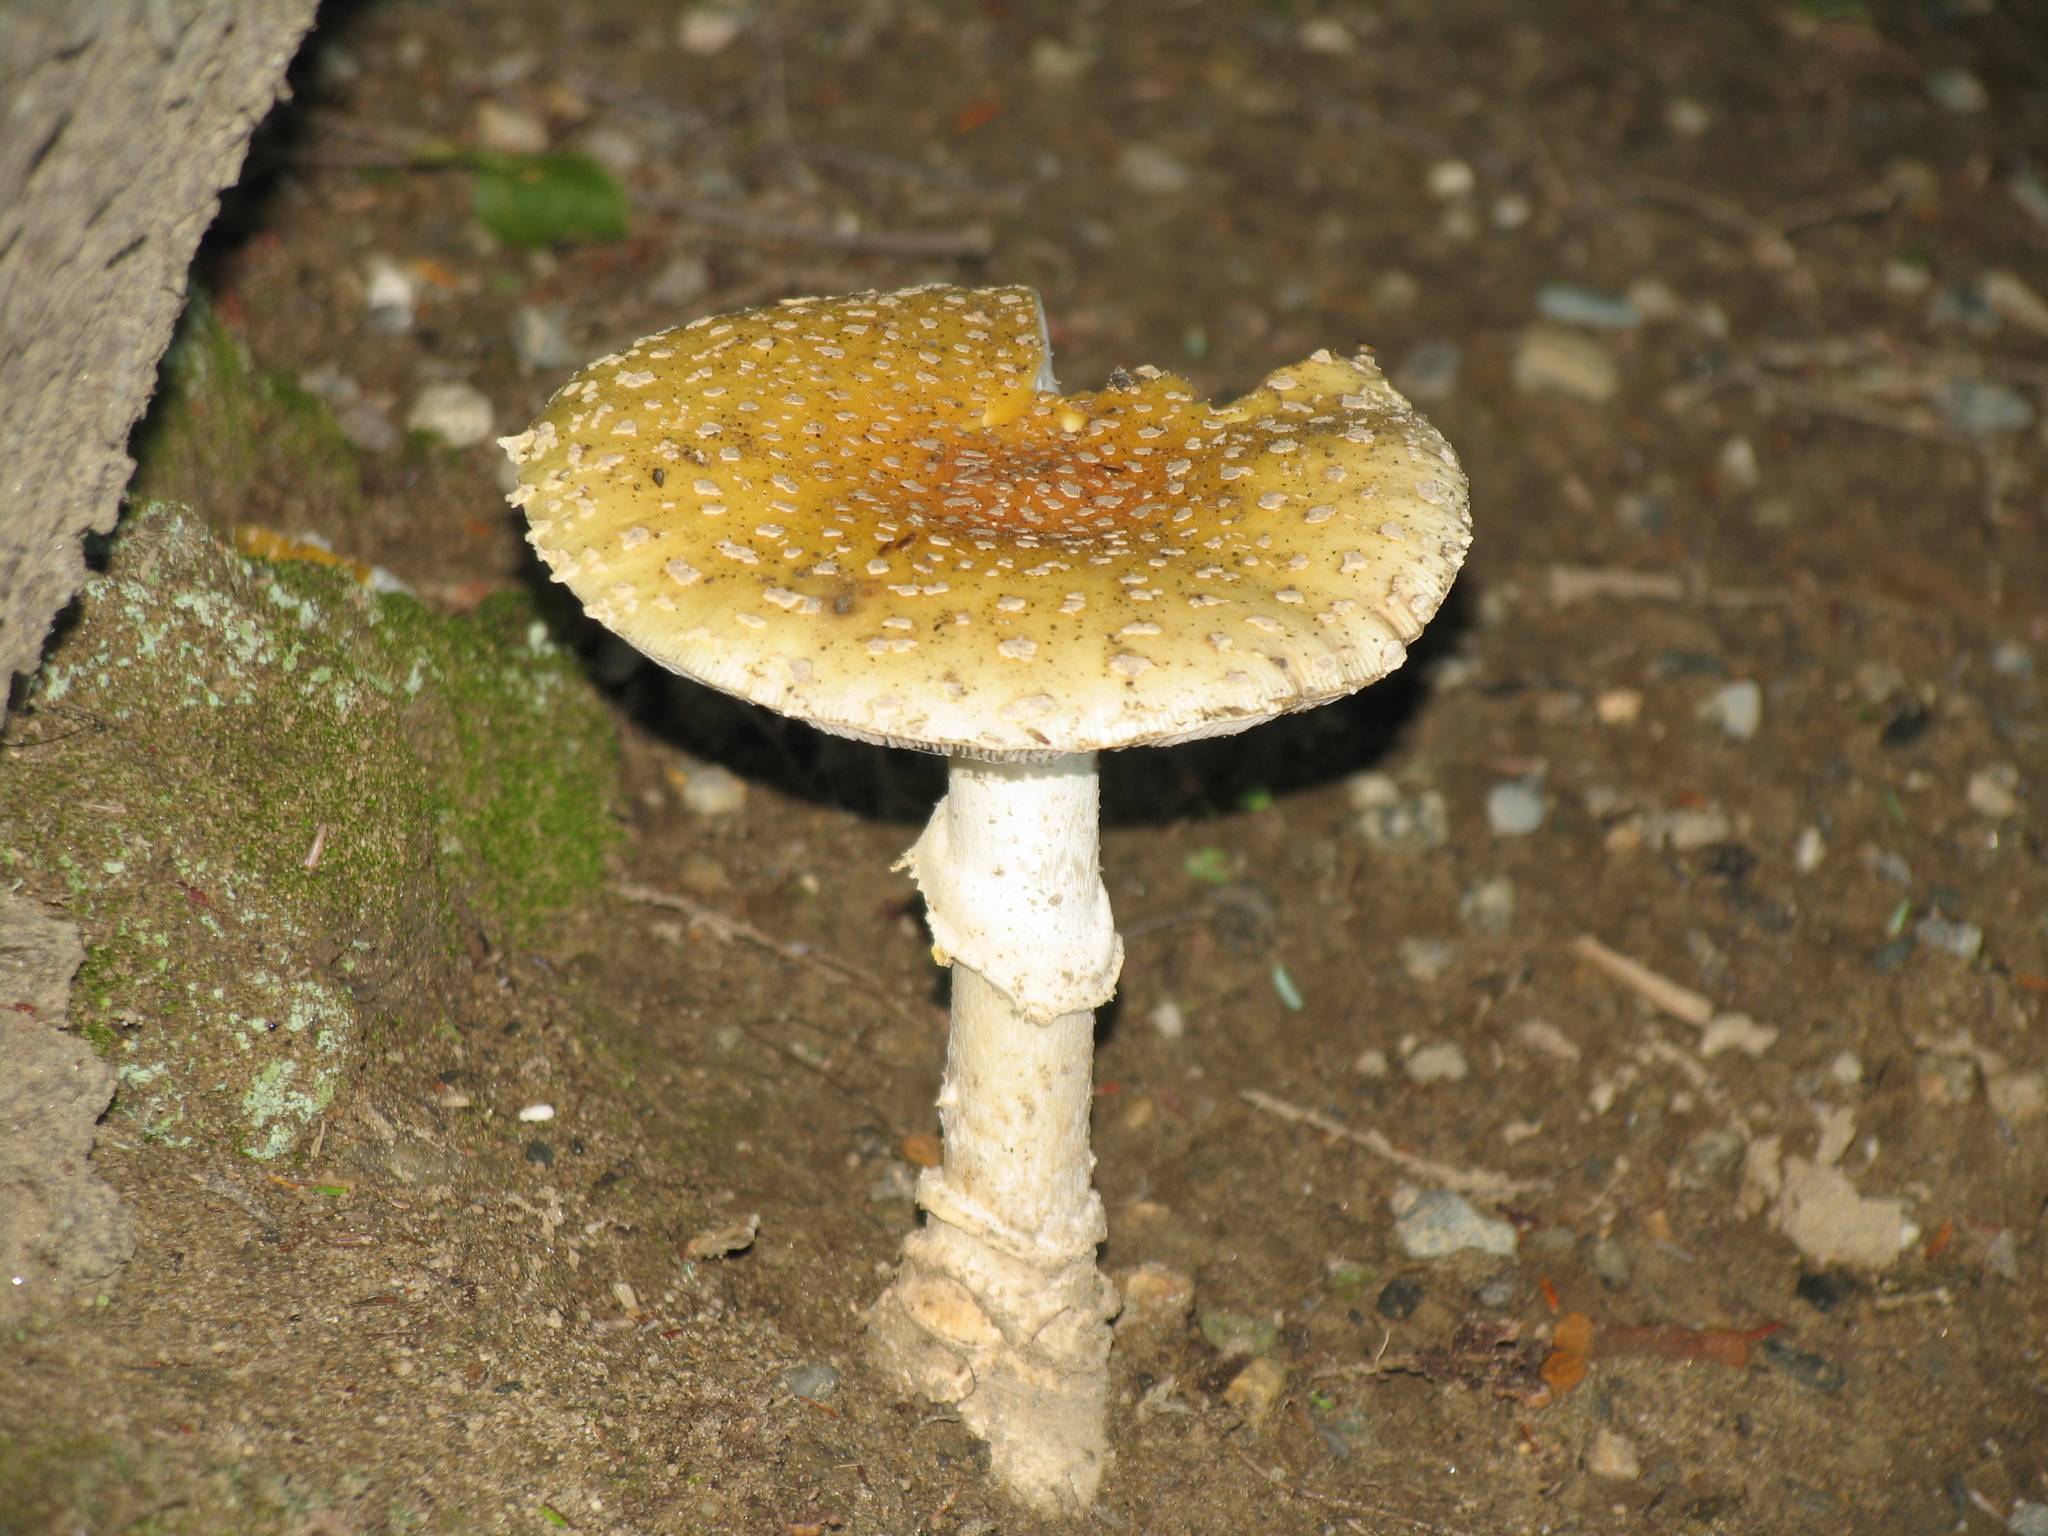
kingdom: Fungi
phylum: Basidiomycota
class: Agaricomycetes
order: Agaricales
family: Amanitaceae
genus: Amanita
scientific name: Amanita muscaria
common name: Fly agaric
